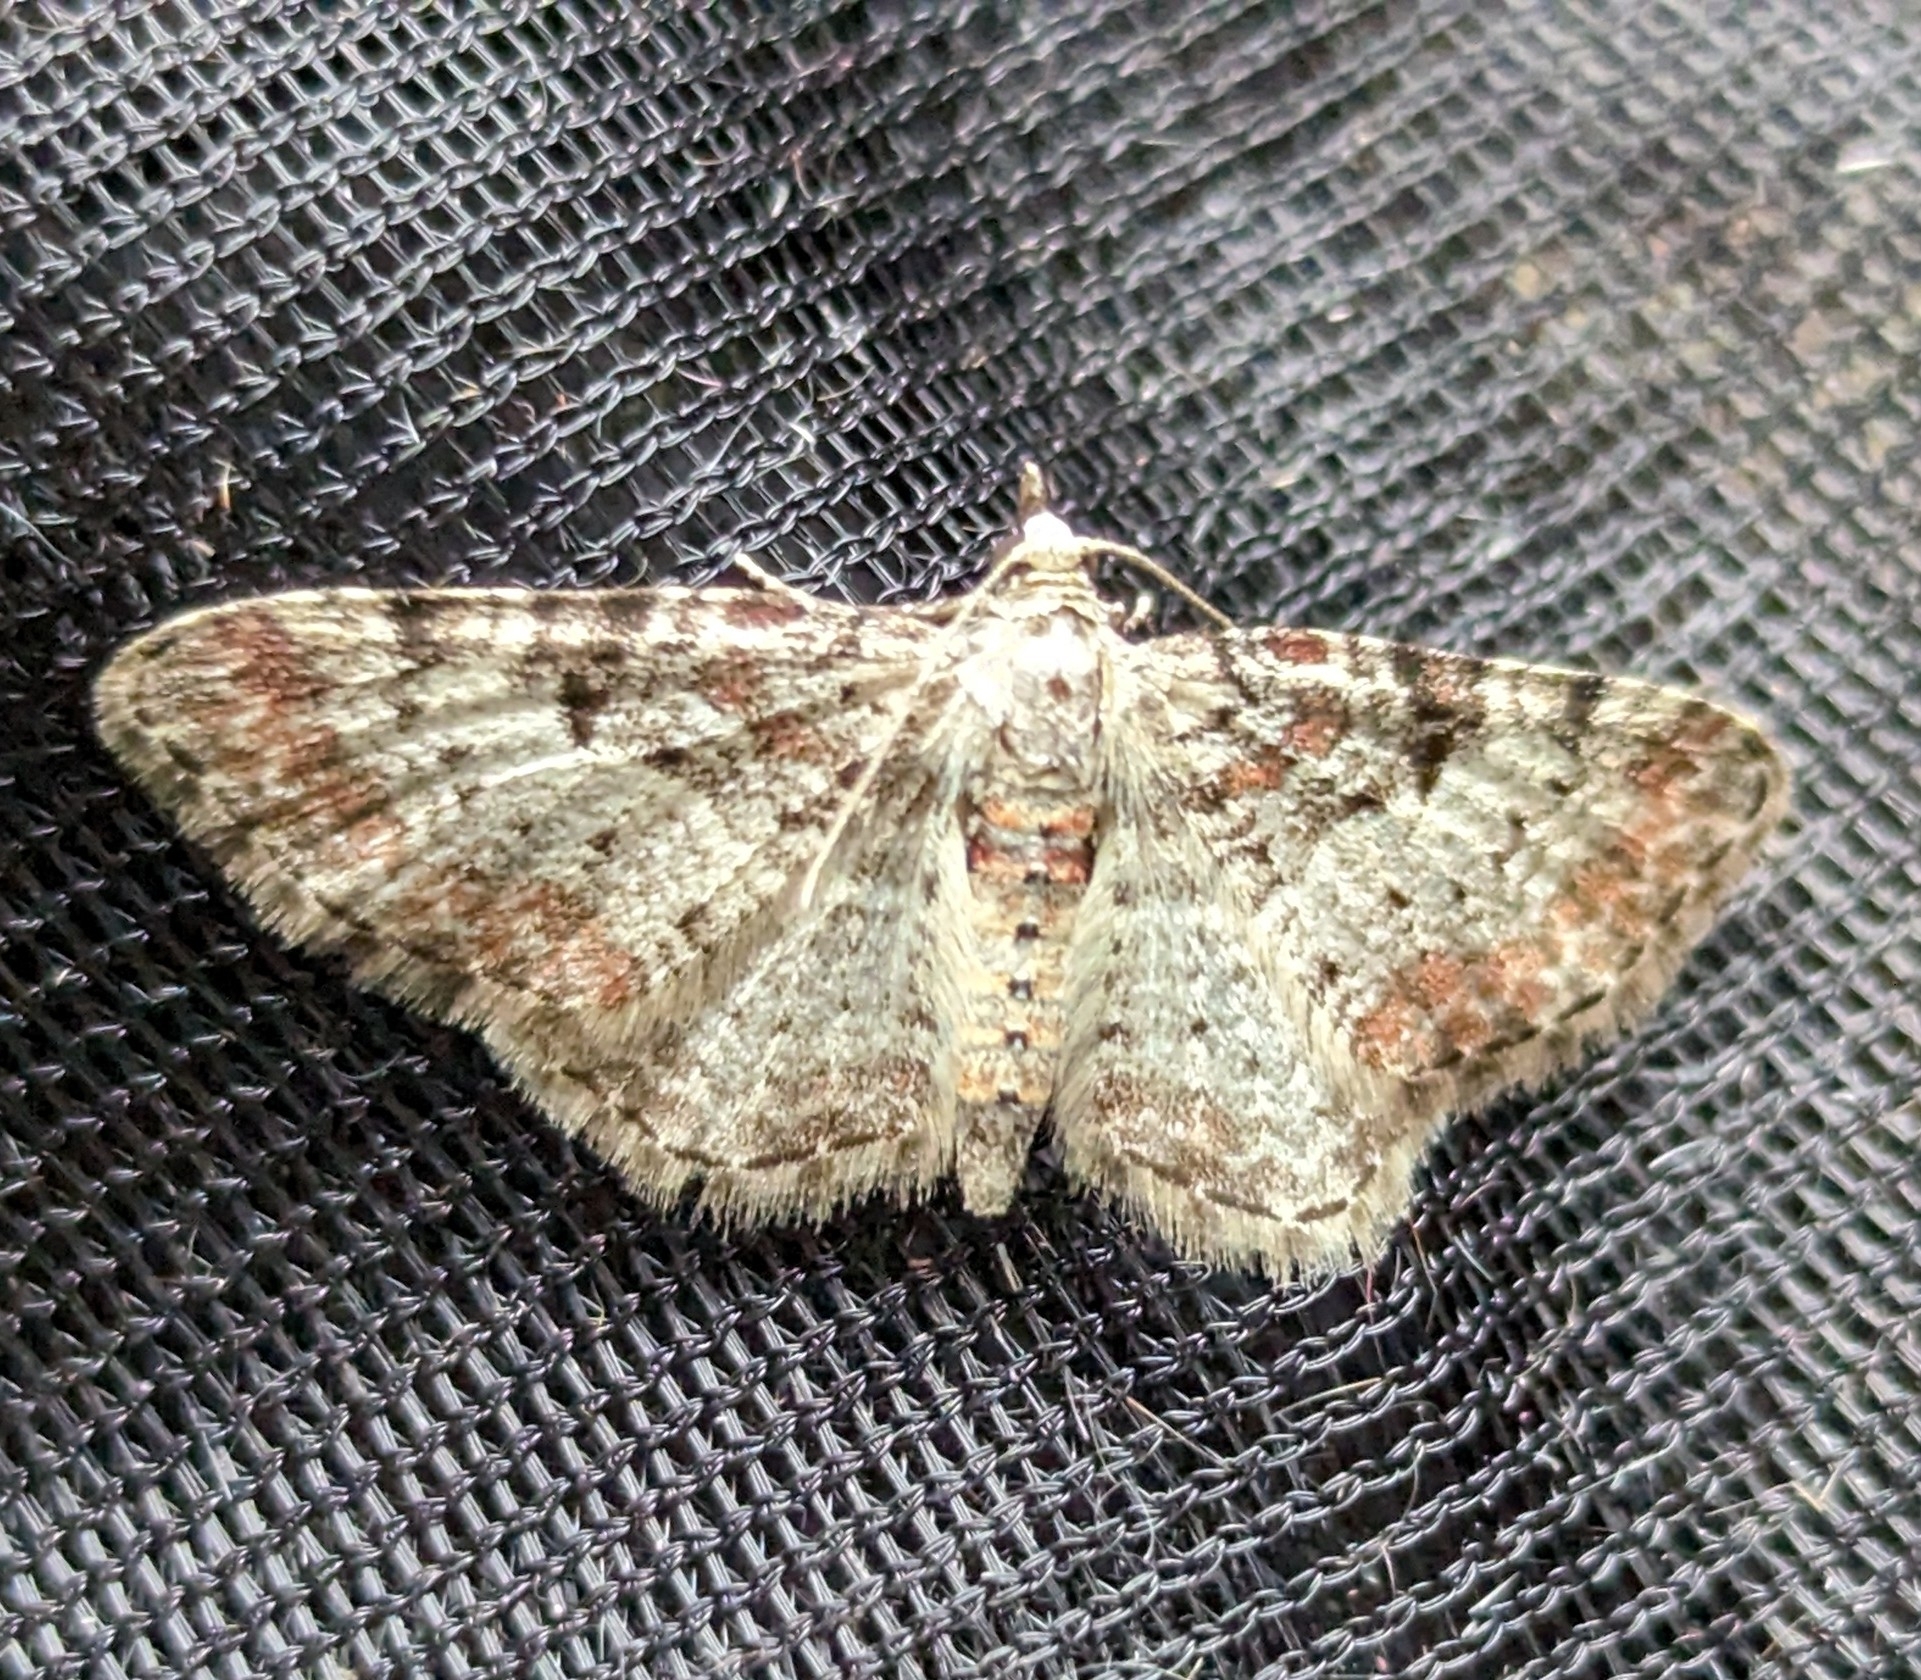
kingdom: Animalia
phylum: Arthropoda
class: Insecta
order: Lepidoptera
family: Geometridae
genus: Eupithecia
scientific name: Eupithecia johnstoni
